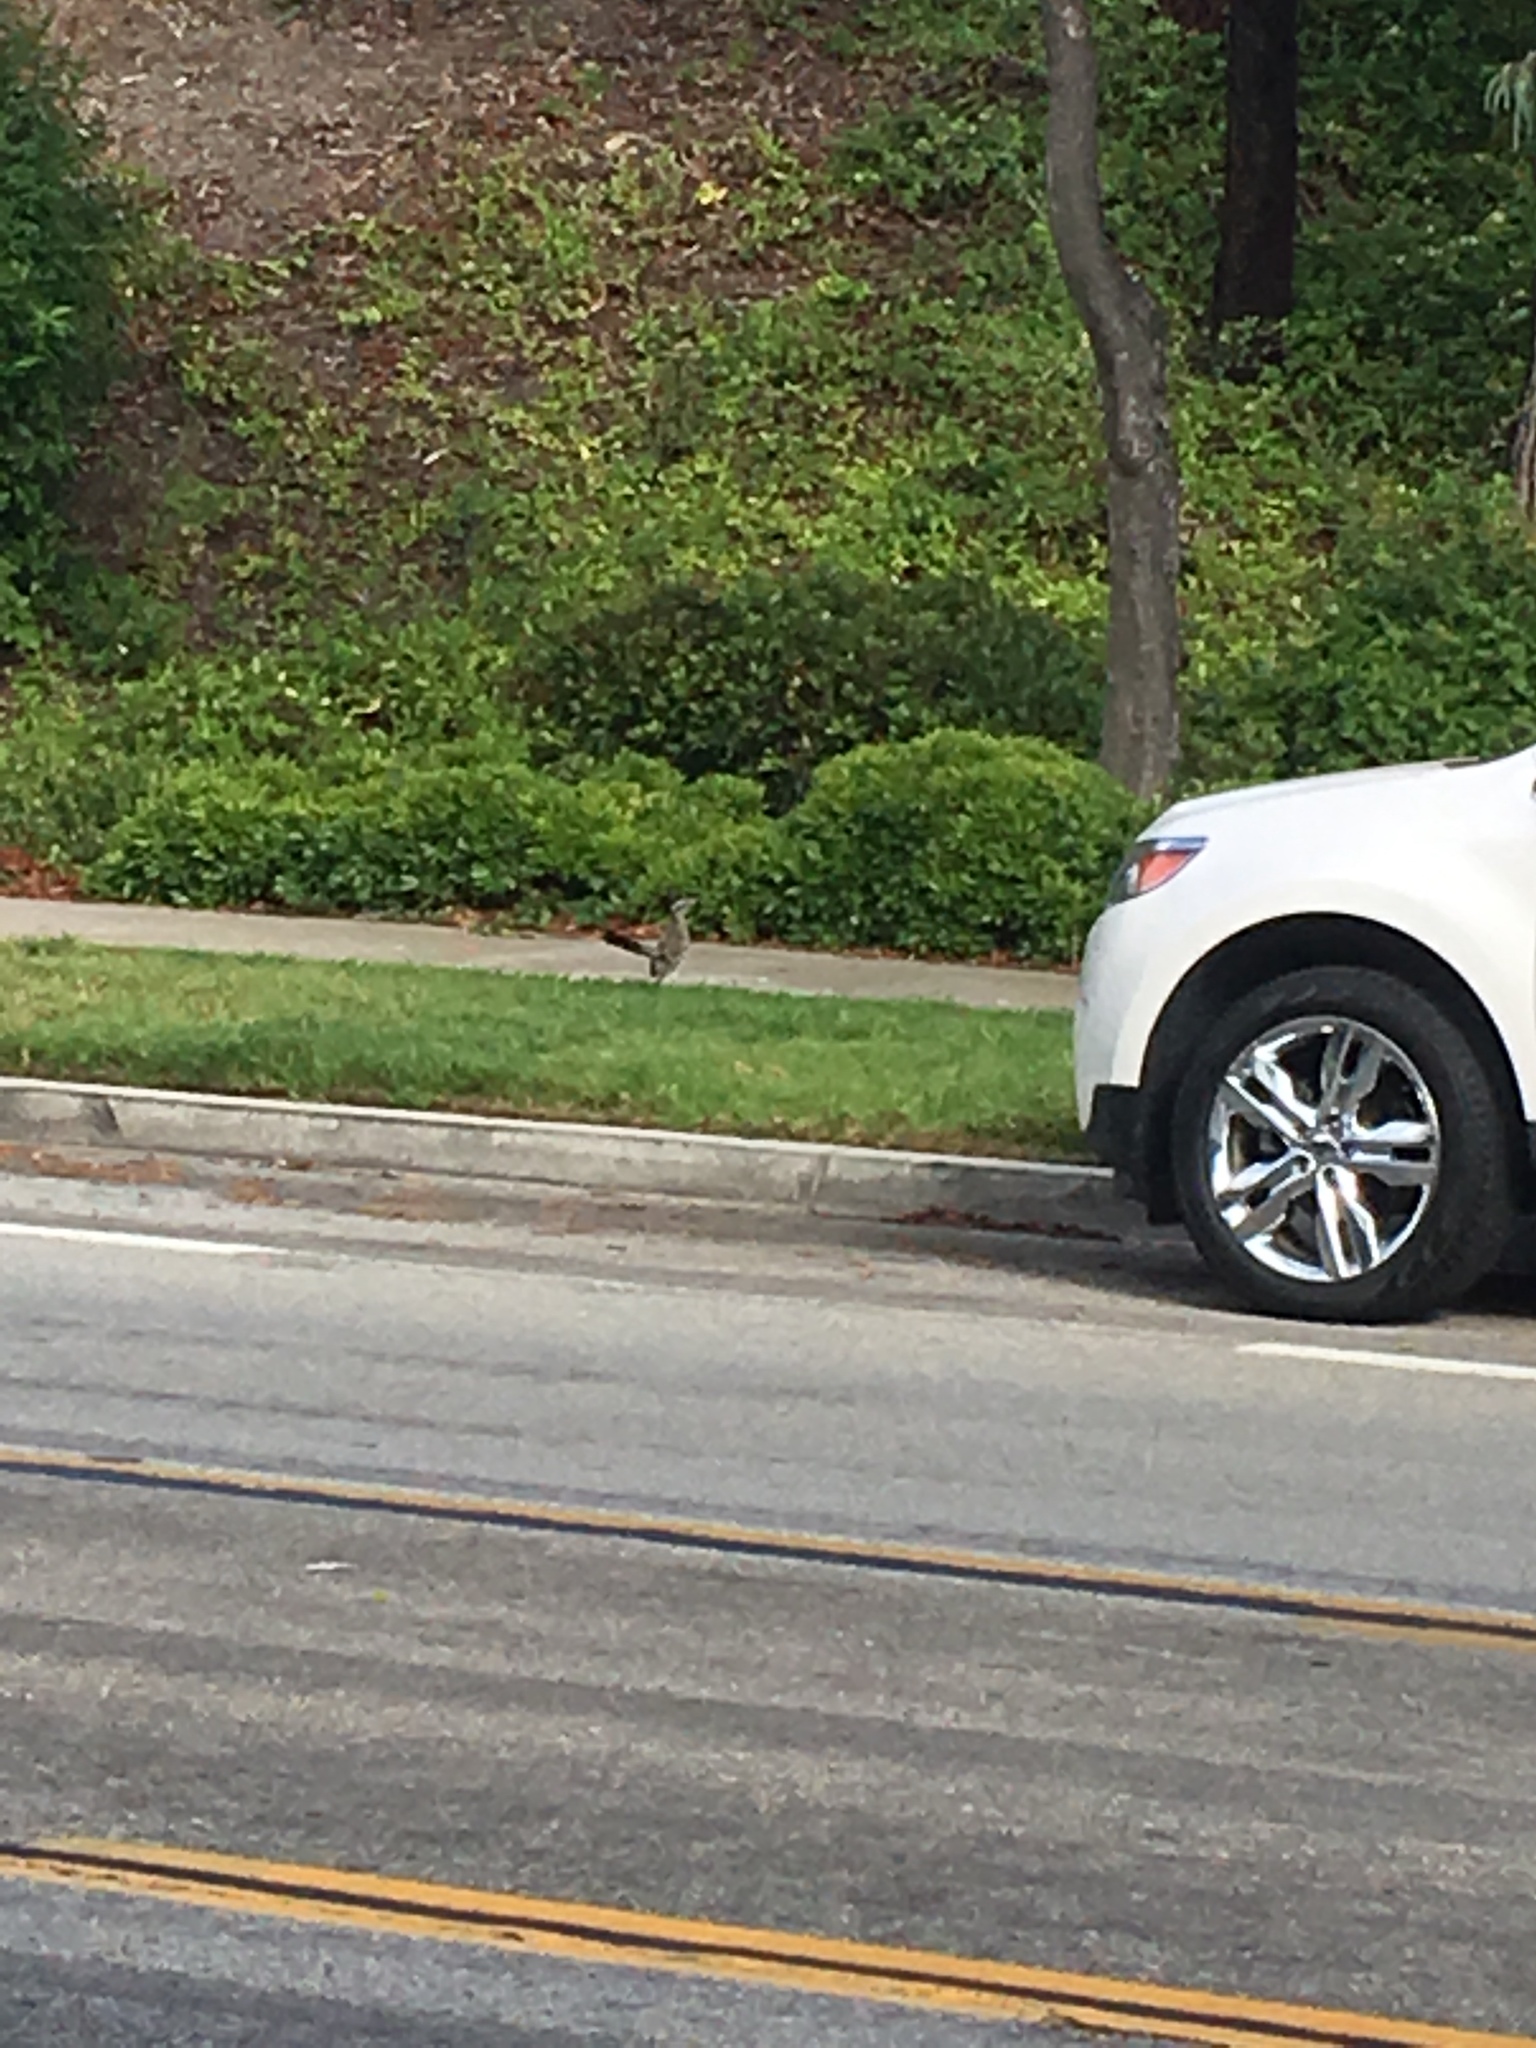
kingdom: Animalia
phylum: Chordata
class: Aves
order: Cuculiformes
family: Cuculidae
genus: Geococcyx
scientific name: Geococcyx californianus
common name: Greater roadrunner
